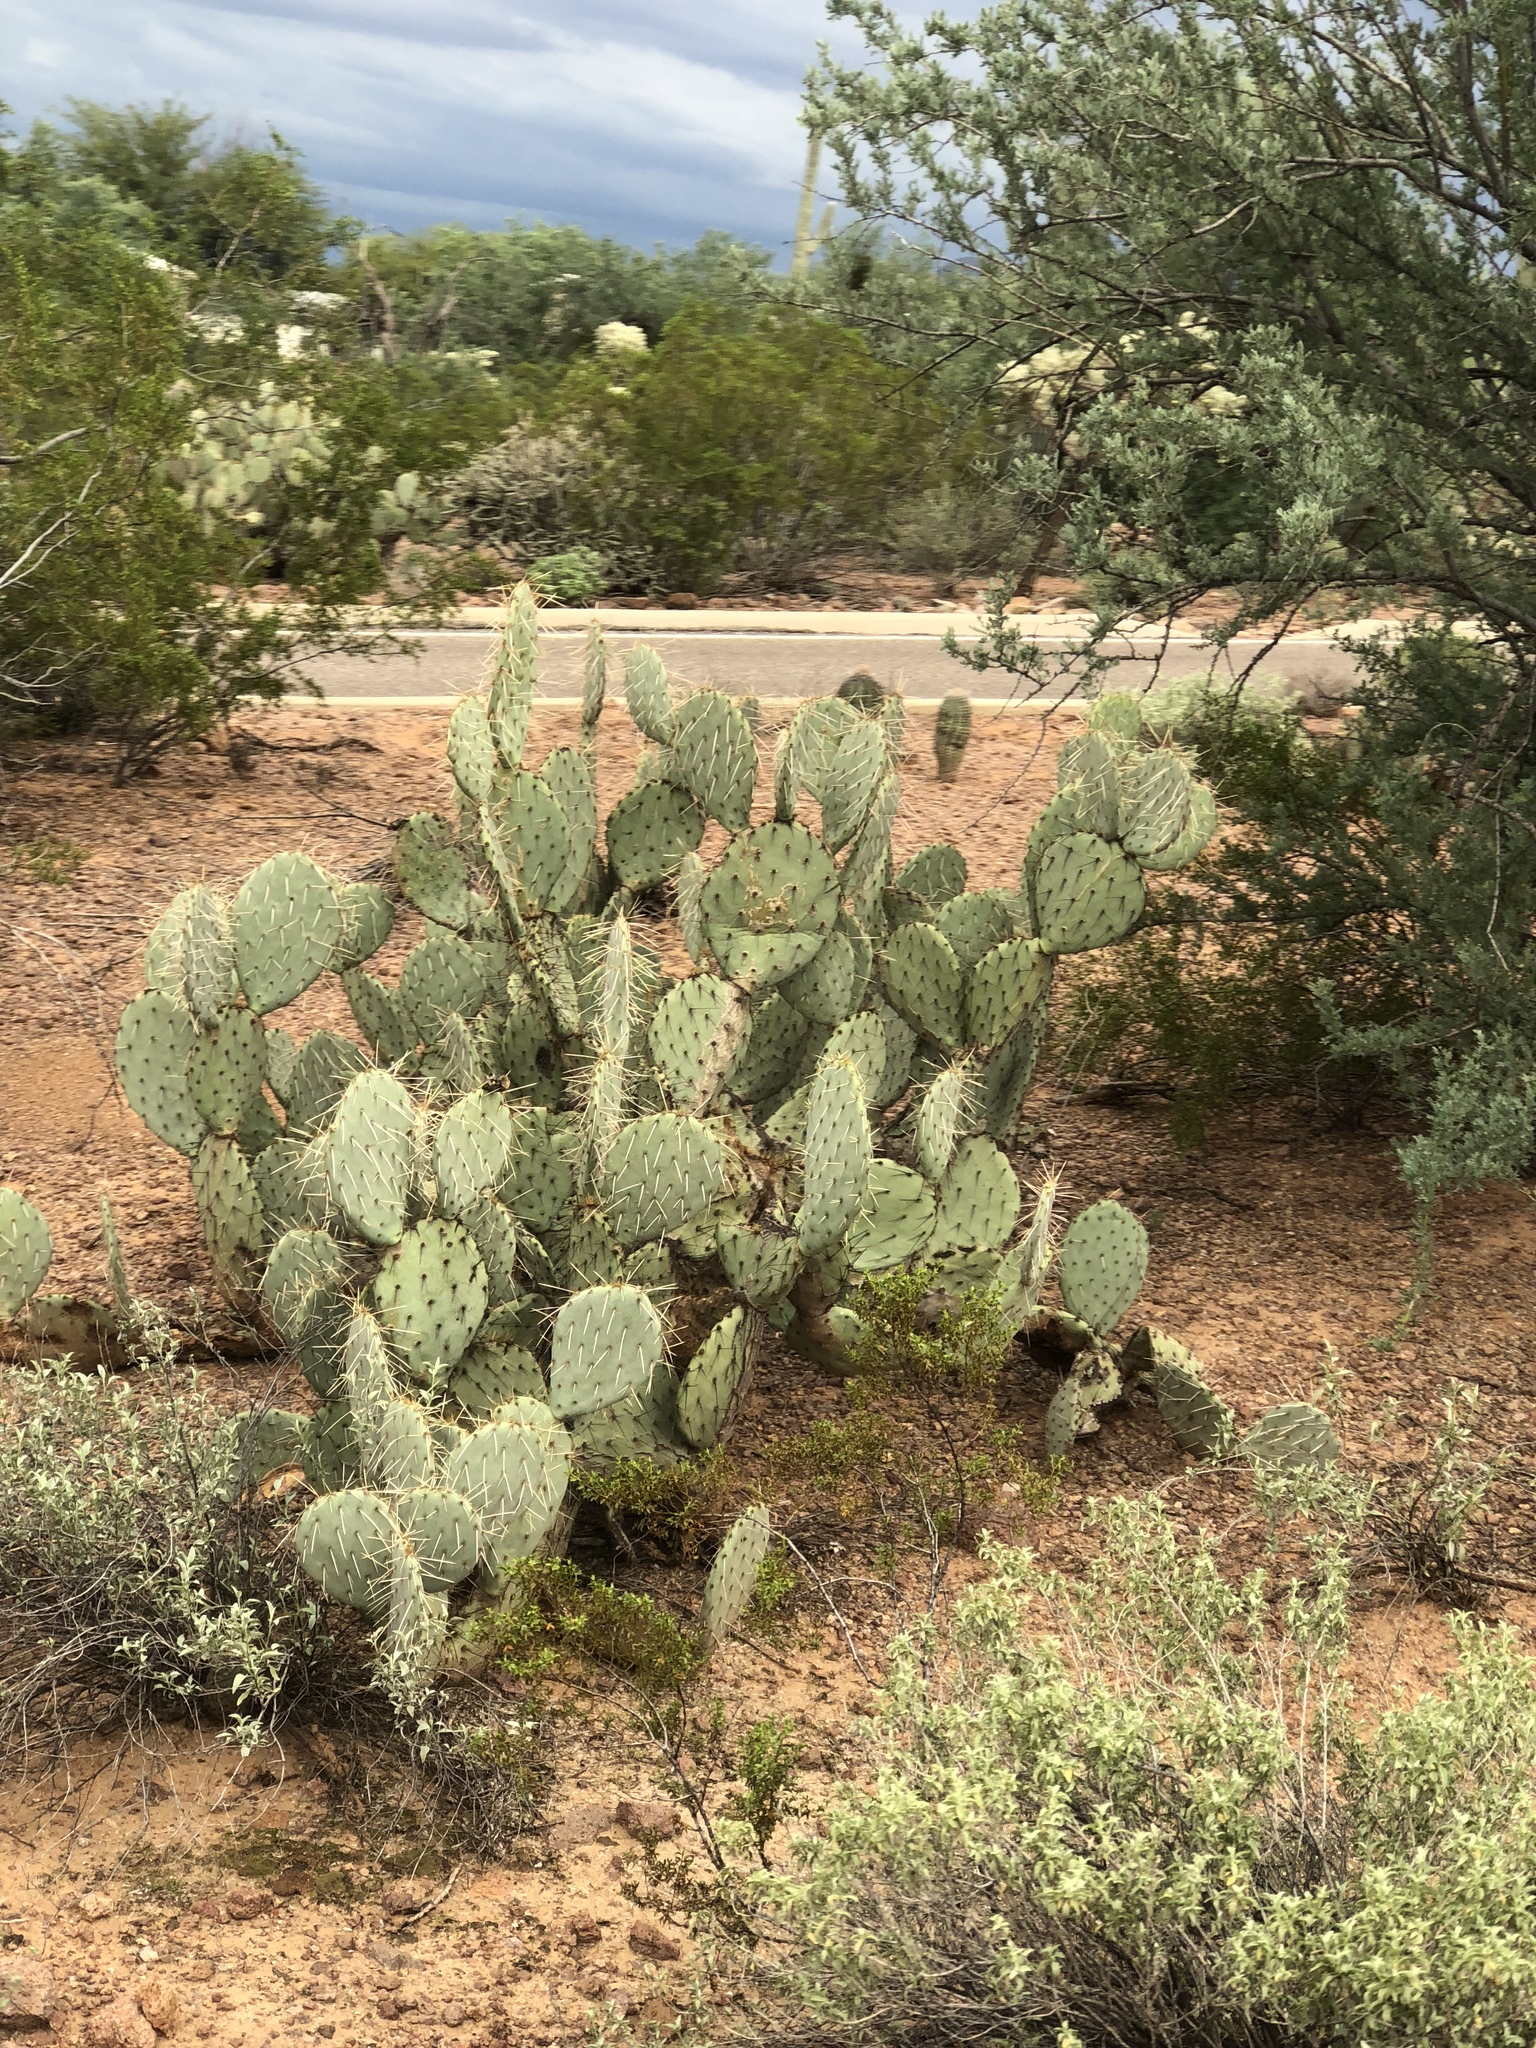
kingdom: Plantae
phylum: Tracheophyta
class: Magnoliopsida
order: Caryophyllales
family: Cactaceae
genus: Opuntia
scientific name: Opuntia engelmannii
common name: Cactus-apple
